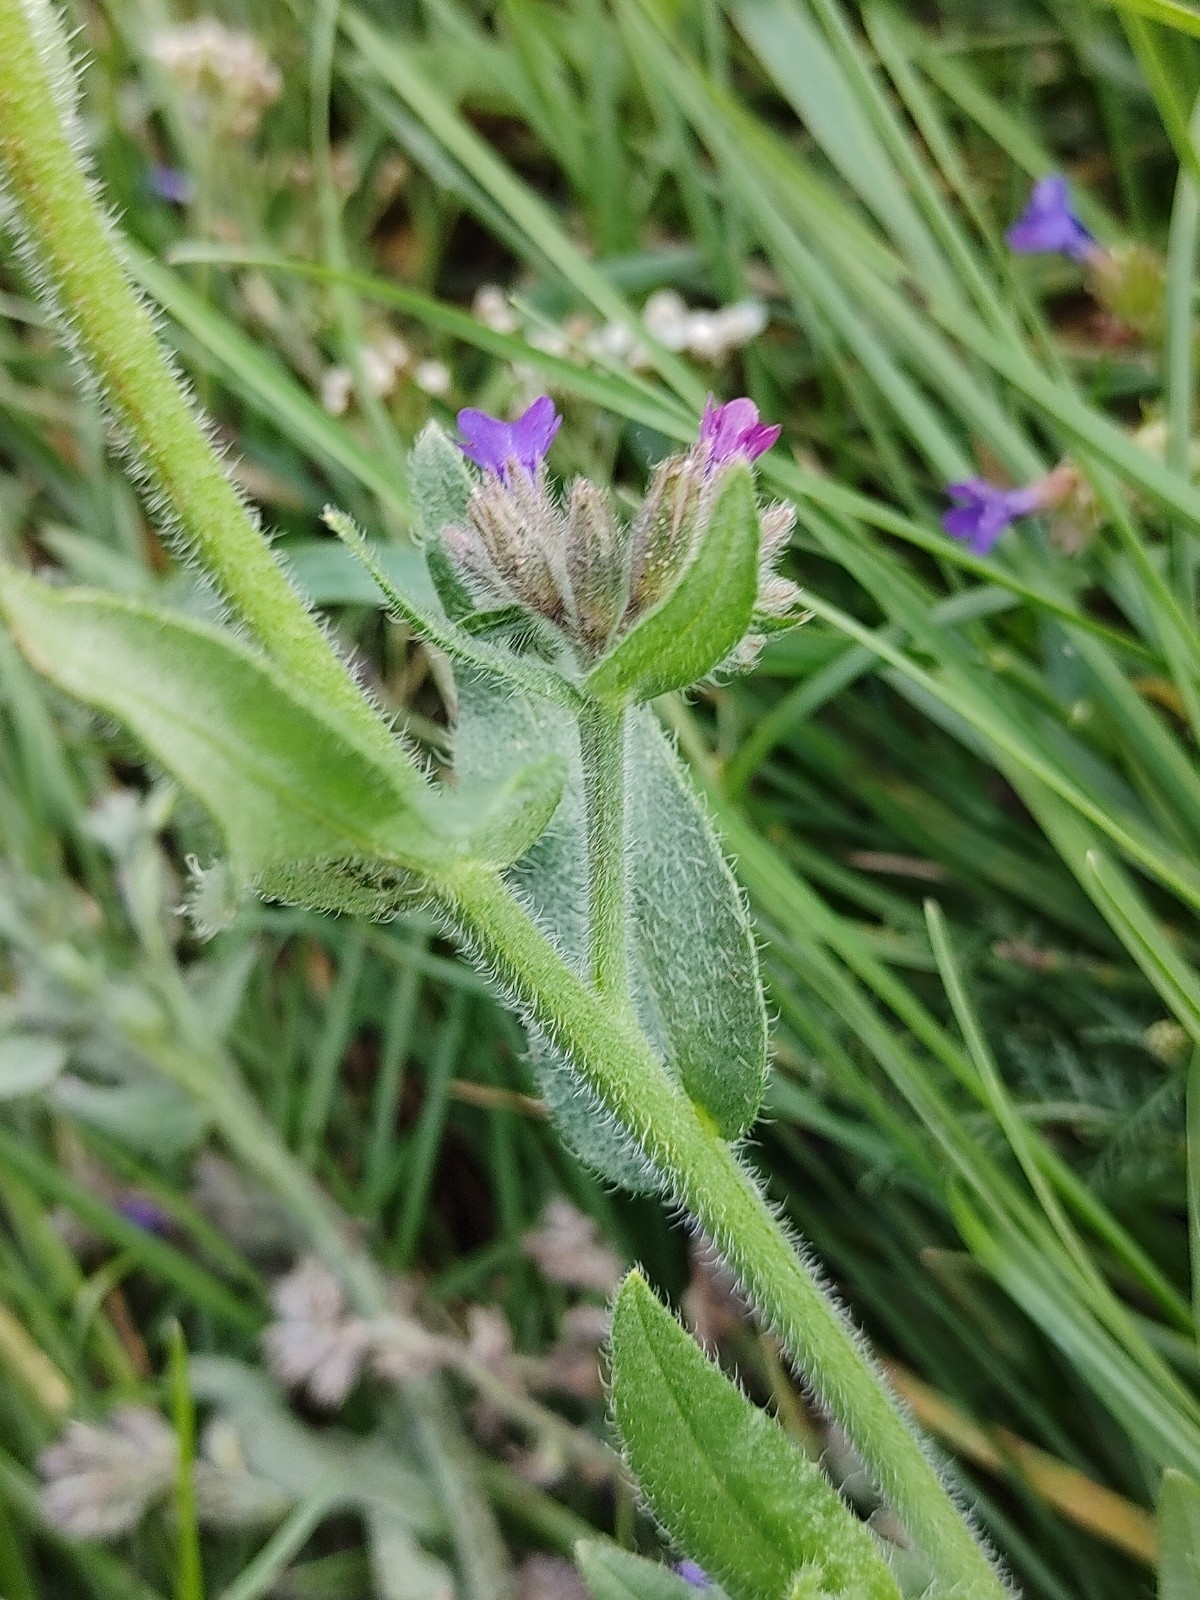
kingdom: Plantae
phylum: Tracheophyta
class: Magnoliopsida
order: Boraginales
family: Boraginaceae
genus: Anchusa
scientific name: Anchusa officinalis
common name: Alkanet
